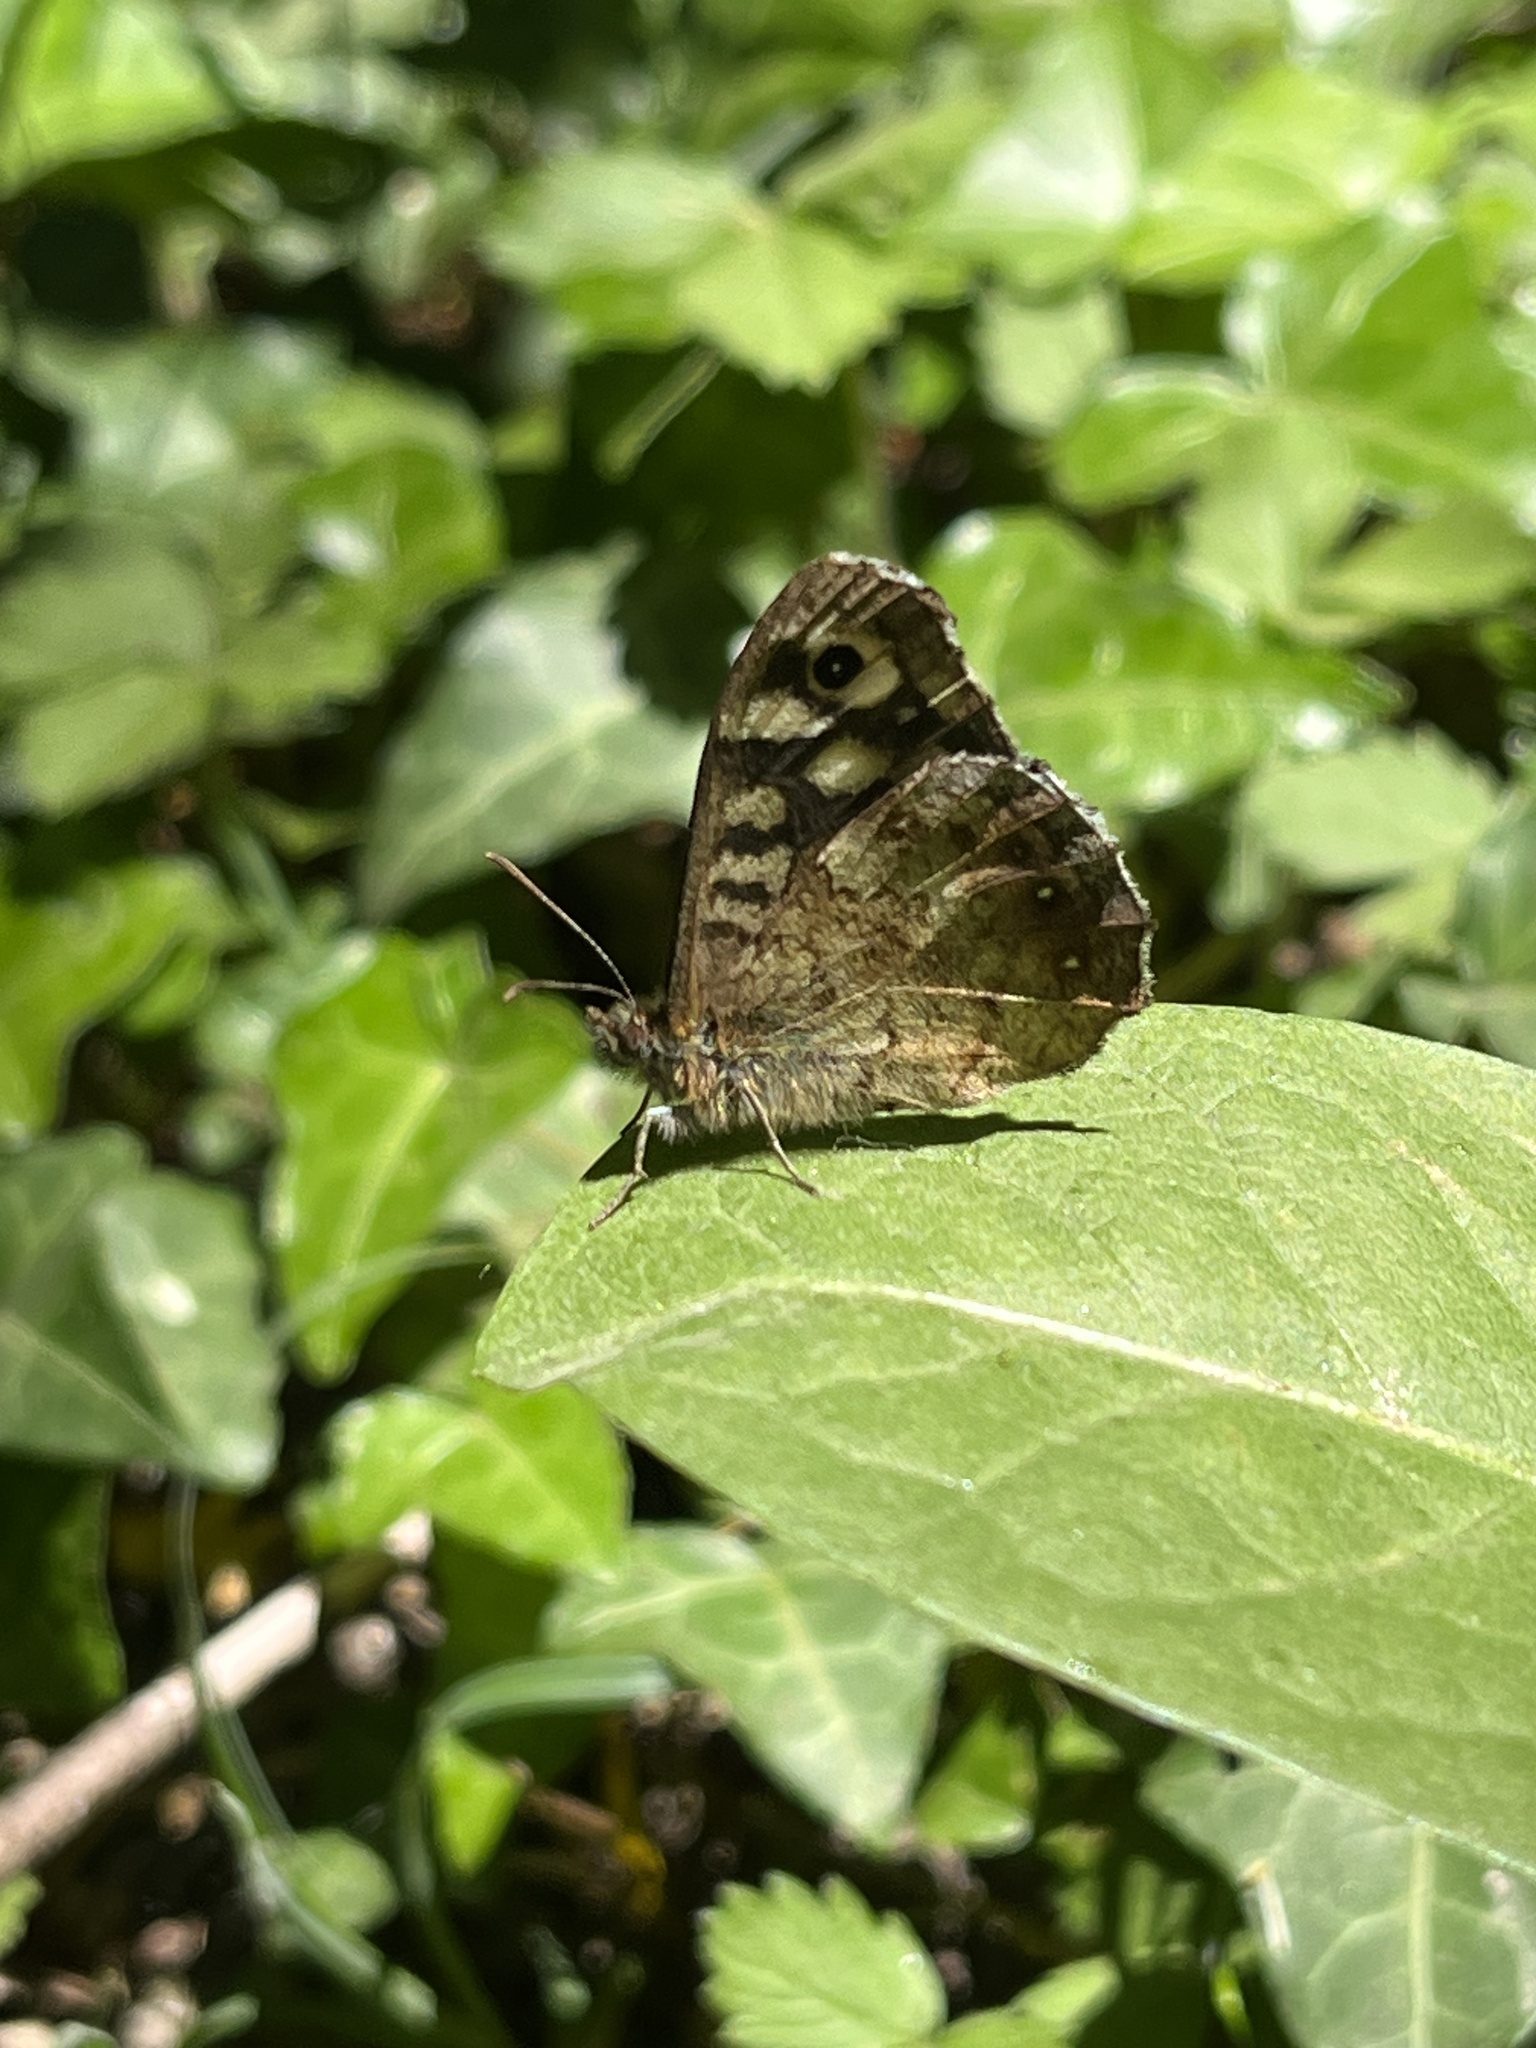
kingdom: Animalia
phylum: Arthropoda
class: Insecta
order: Lepidoptera
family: Nymphalidae
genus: Pararge
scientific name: Pararge aegeria
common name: Speckled wood
